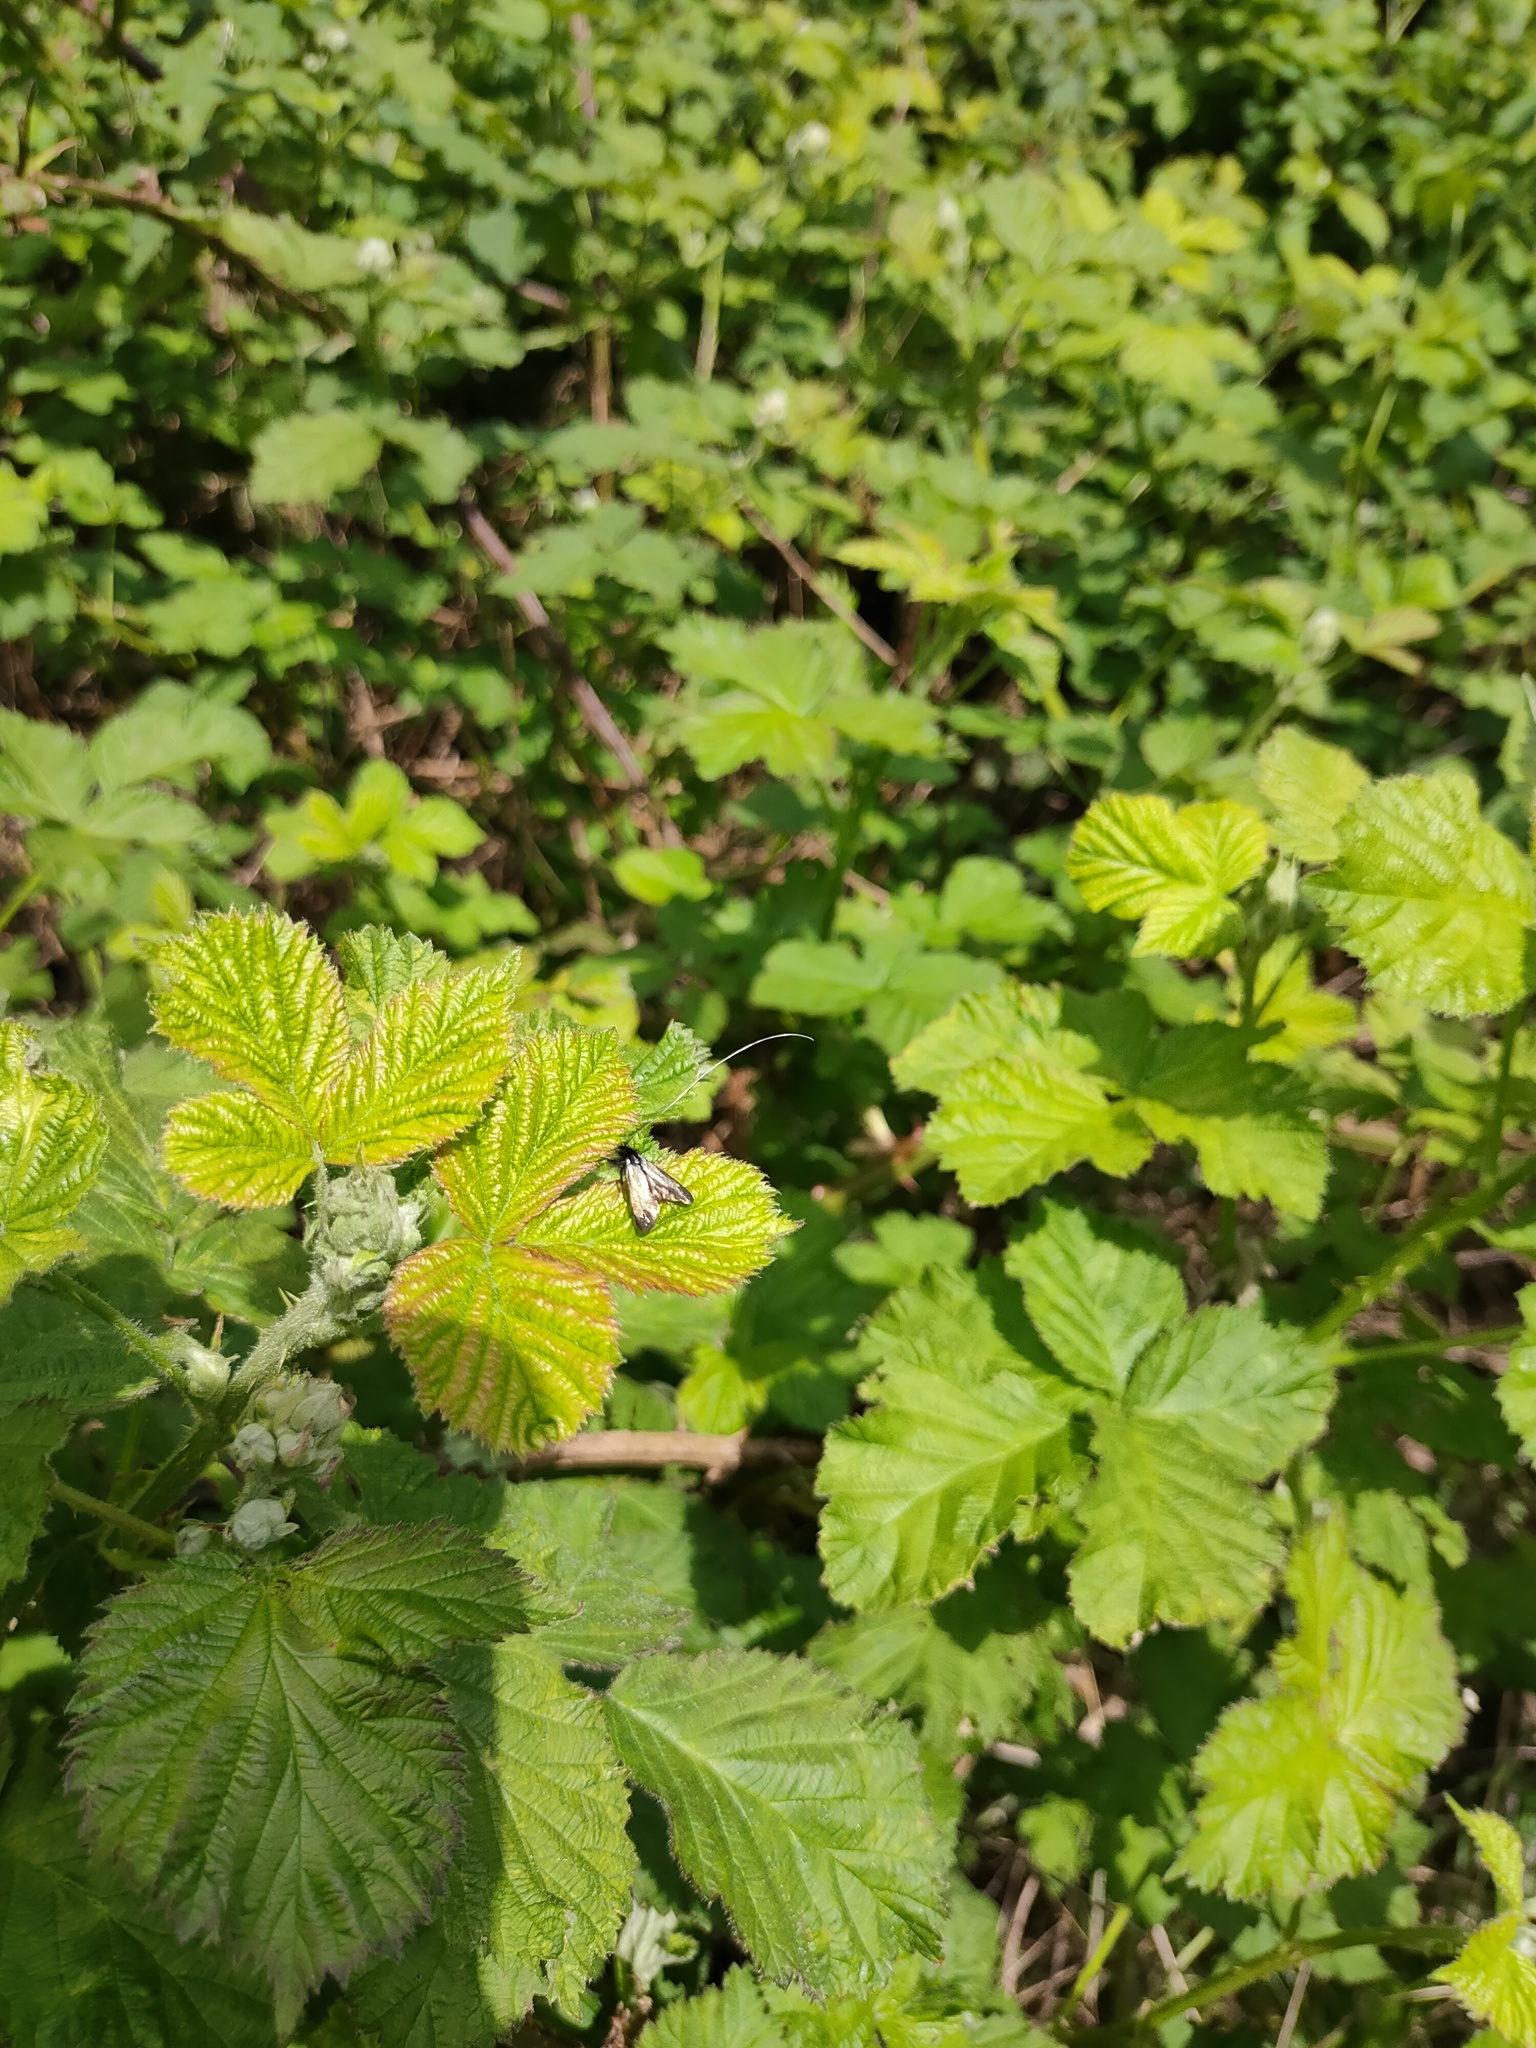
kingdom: Animalia
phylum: Arthropoda
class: Insecta
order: Lepidoptera
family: Adelidae
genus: Adela
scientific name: Adela viridella
